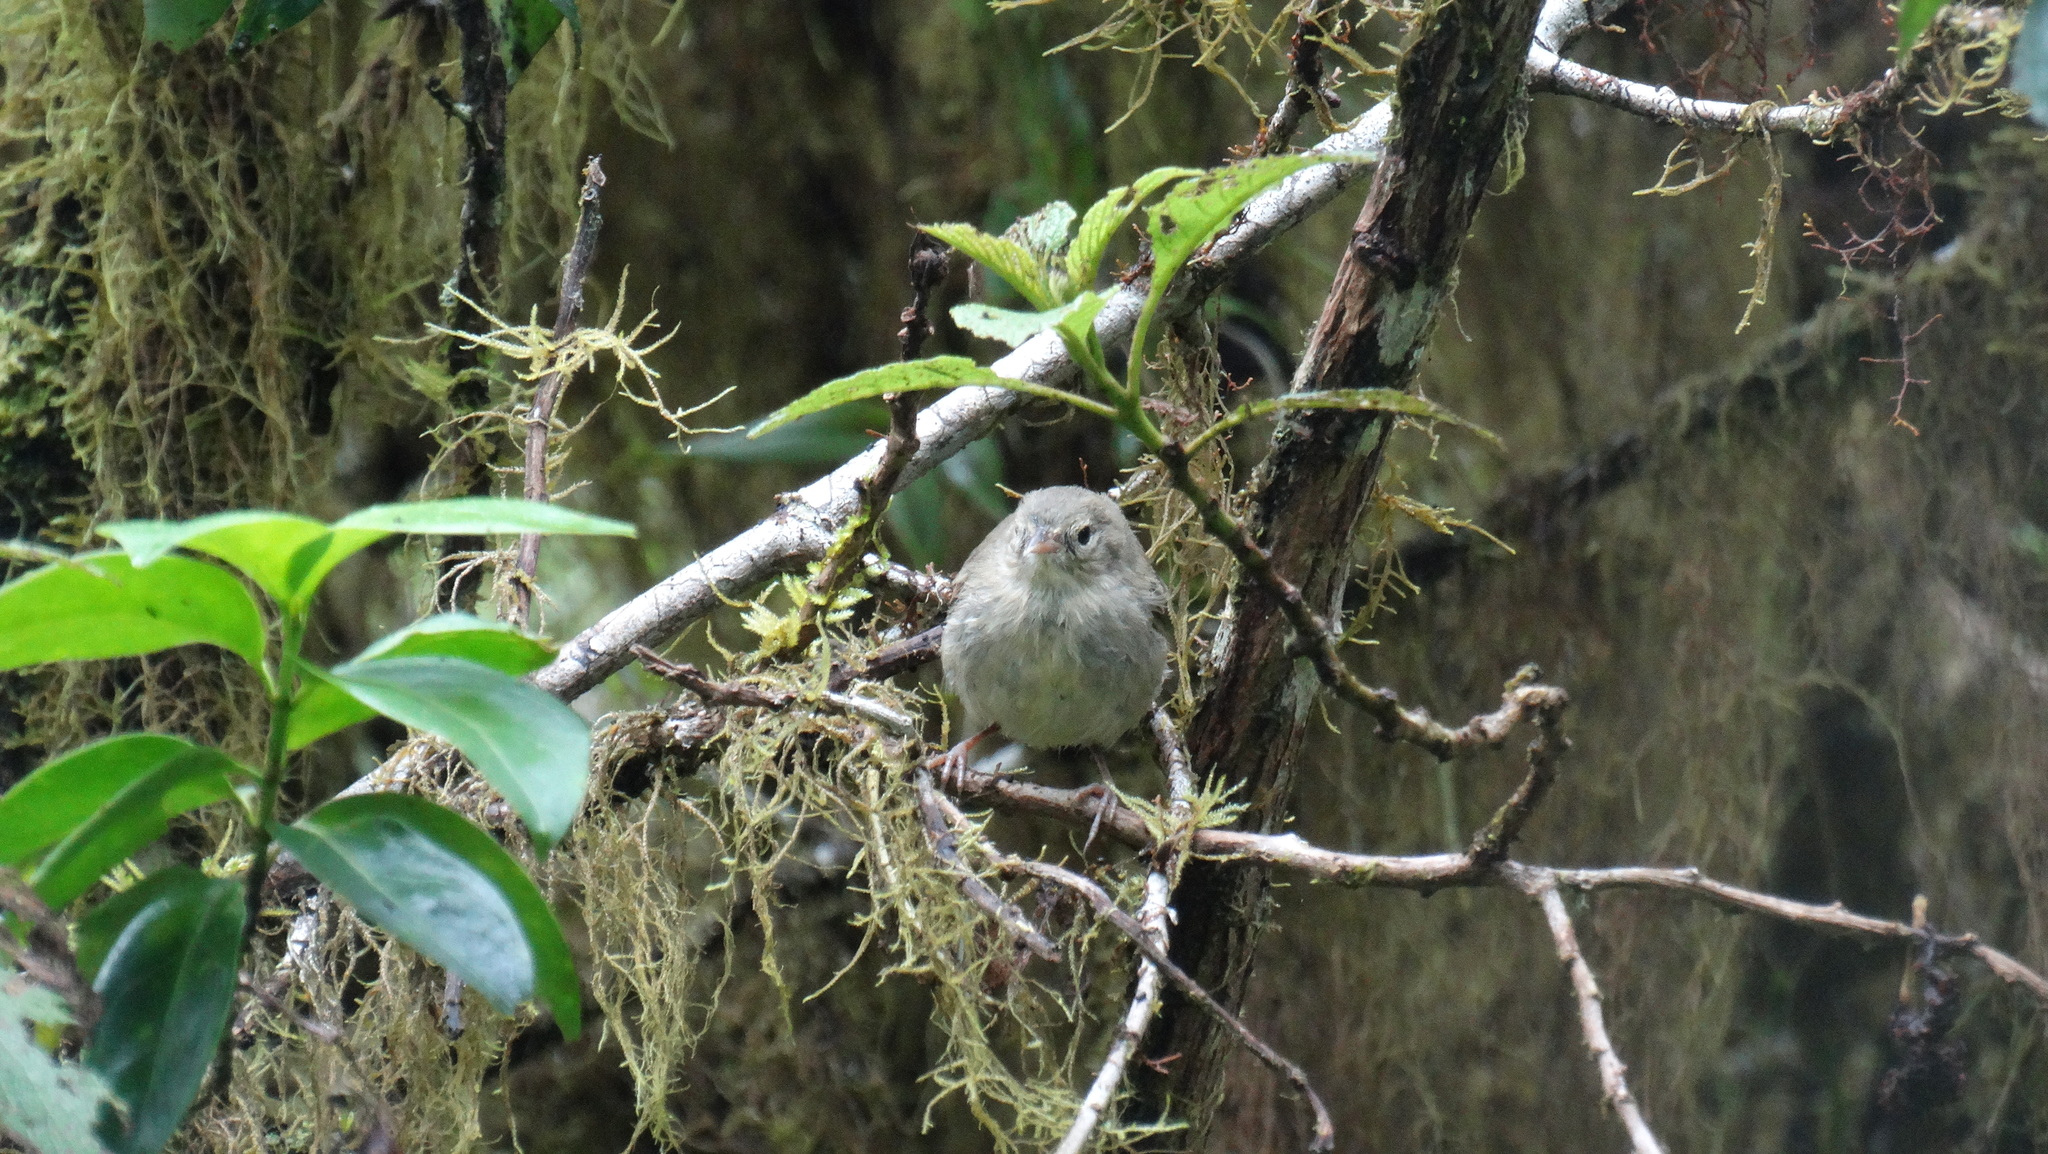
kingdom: Animalia
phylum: Chordata
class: Aves
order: Passeriformes
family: Thraupidae
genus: Certhidea
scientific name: Certhidea olivacea
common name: Green warbler-finch
